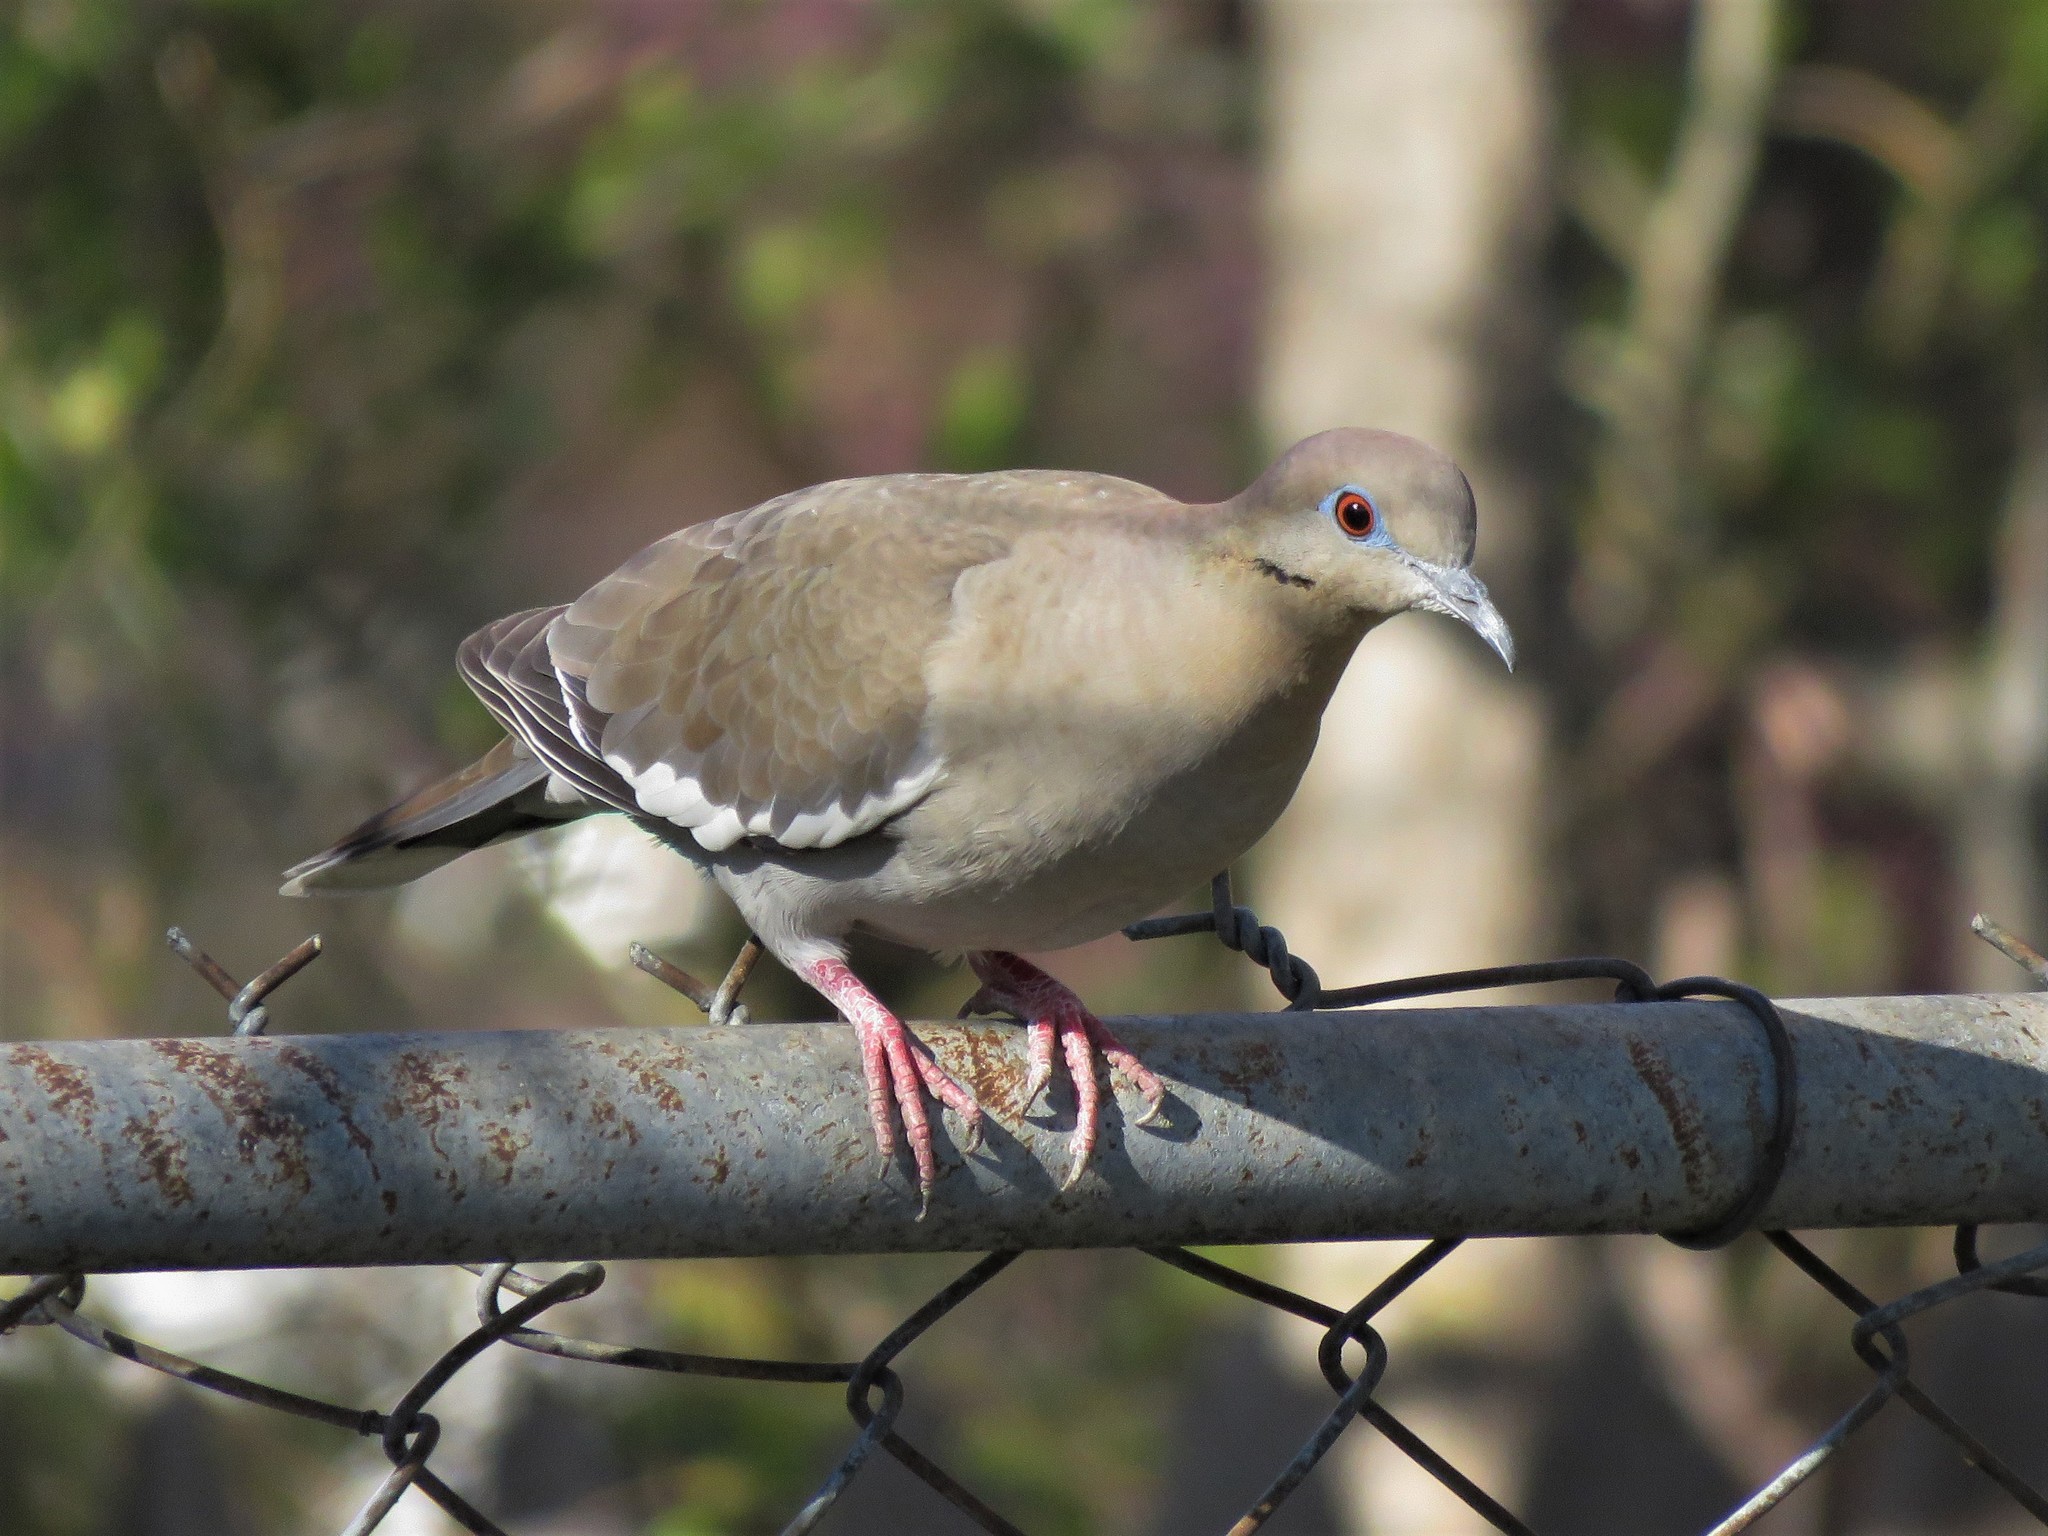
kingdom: Animalia
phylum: Chordata
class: Aves
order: Columbiformes
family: Columbidae
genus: Zenaida
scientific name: Zenaida asiatica
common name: White-winged dove
